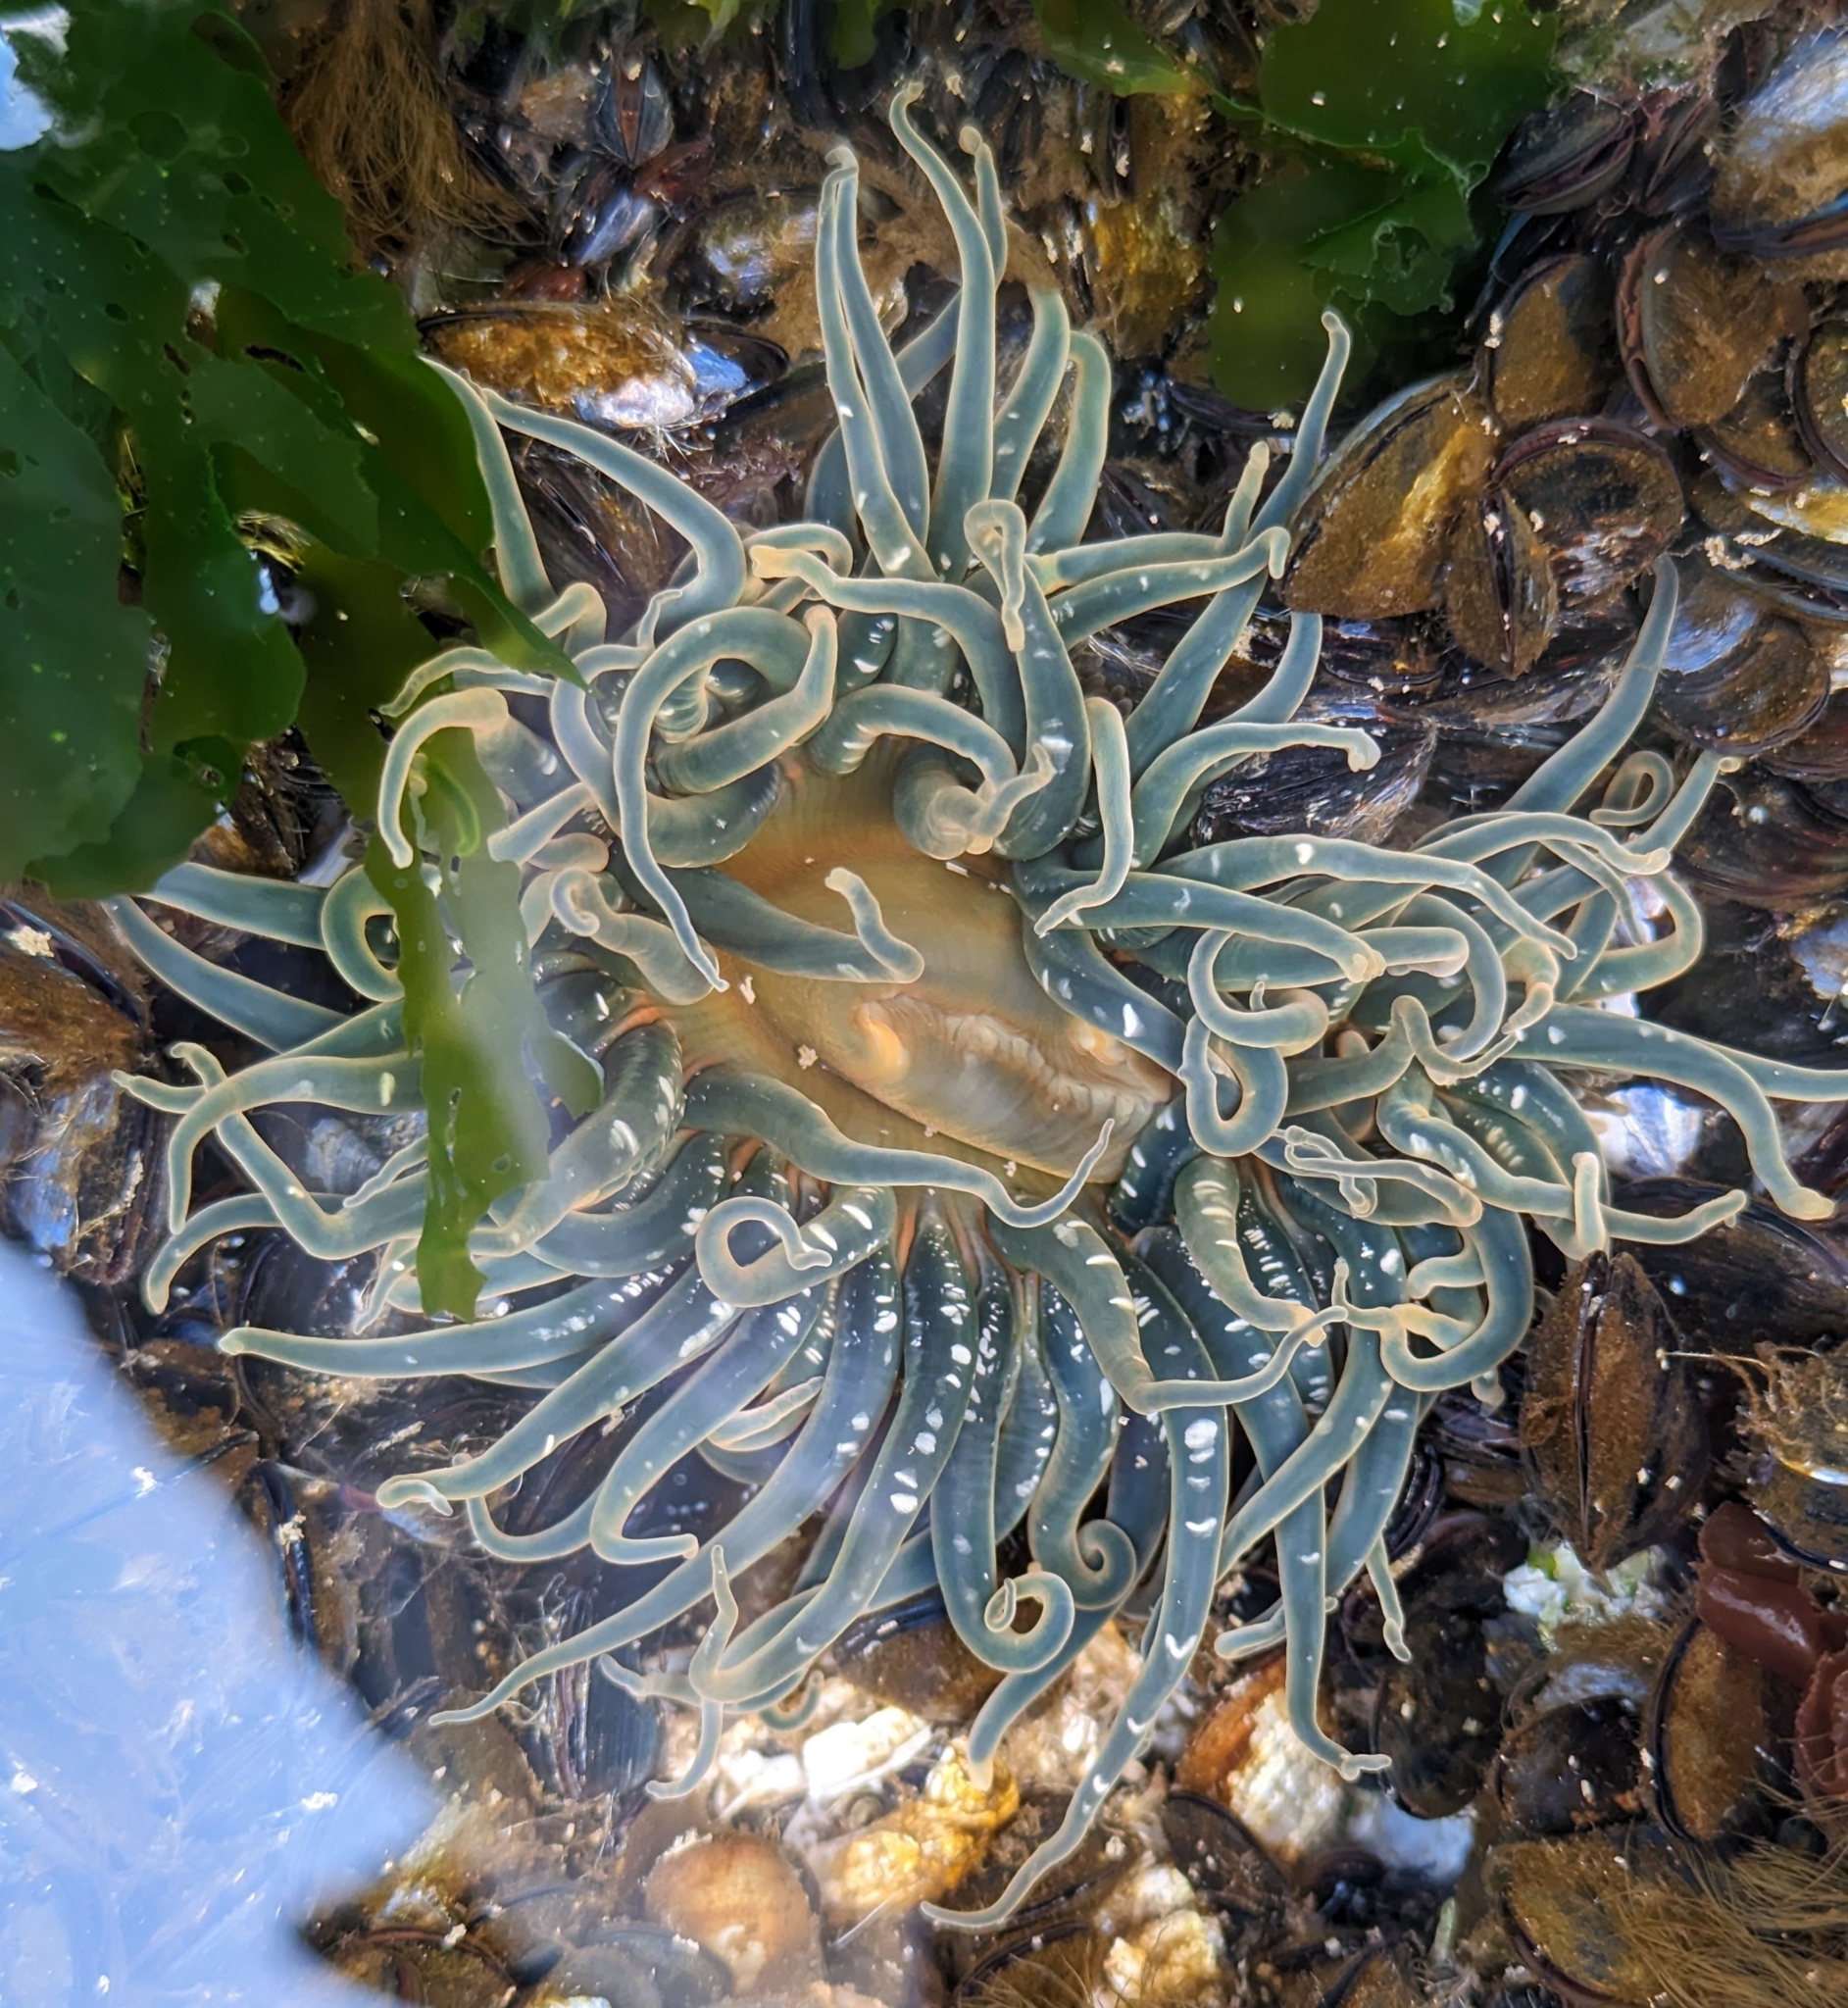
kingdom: Animalia
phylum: Cnidaria
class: Anthozoa
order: Actiniaria
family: Actiniidae
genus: Anthopleura
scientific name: Anthopleura artemisia
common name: Buried sea anemone
